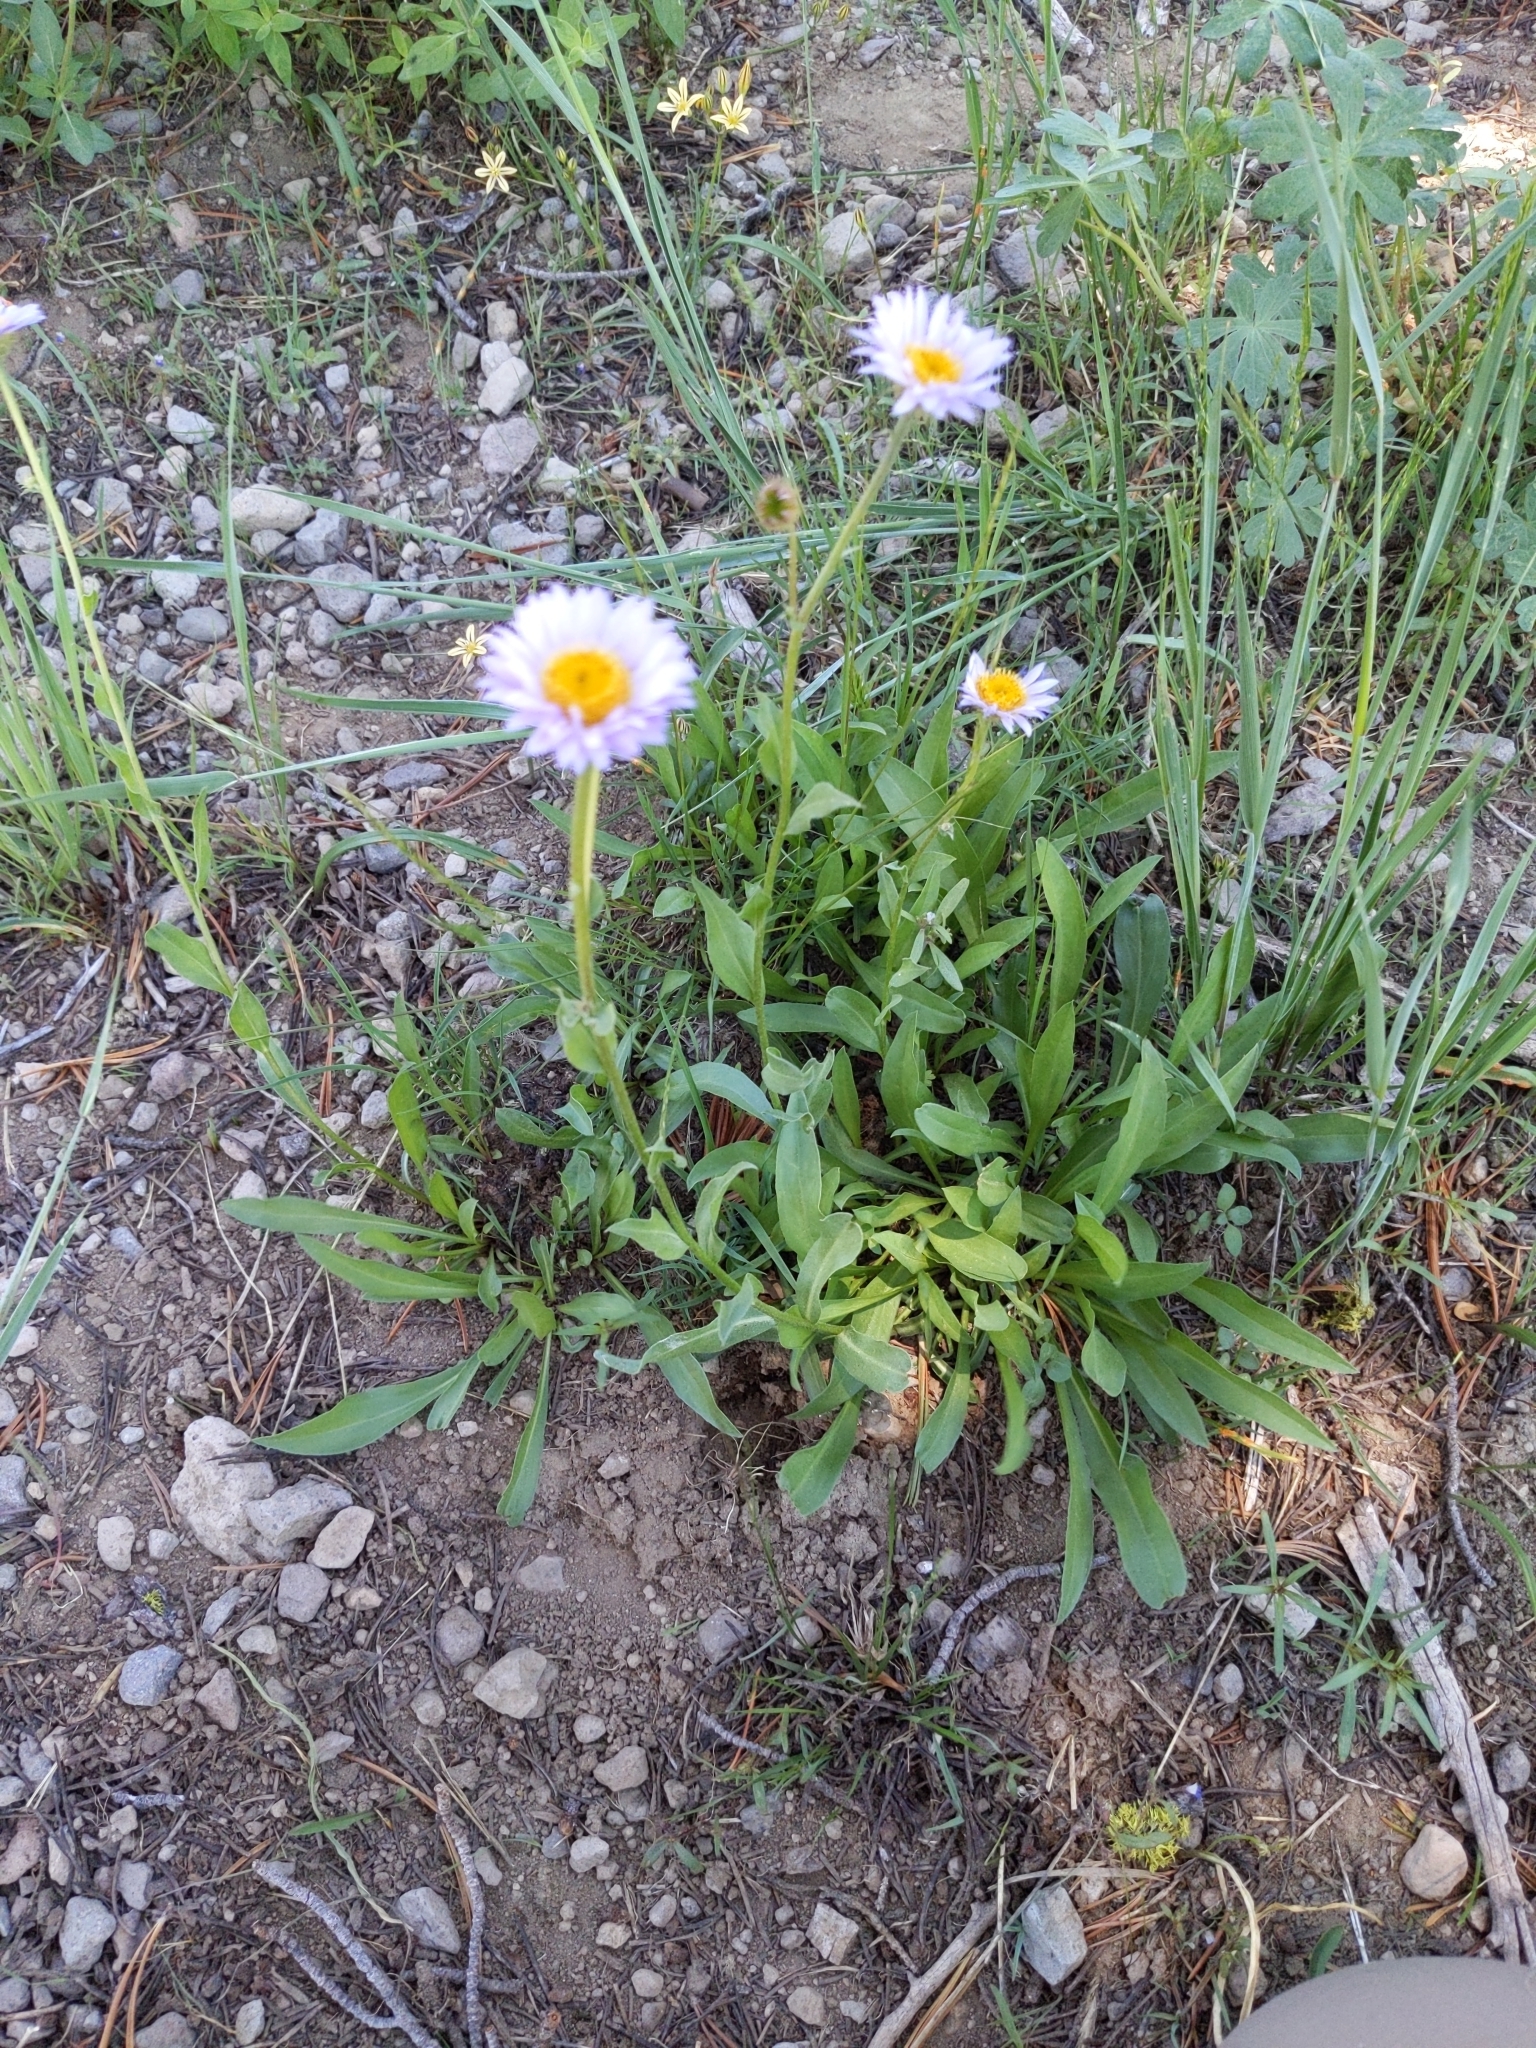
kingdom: Plantae
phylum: Tracheophyta
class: Magnoliopsida
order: Asterales
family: Asteraceae
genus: Erigeron
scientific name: Erigeron glacialis
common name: Subalpine fleabane
